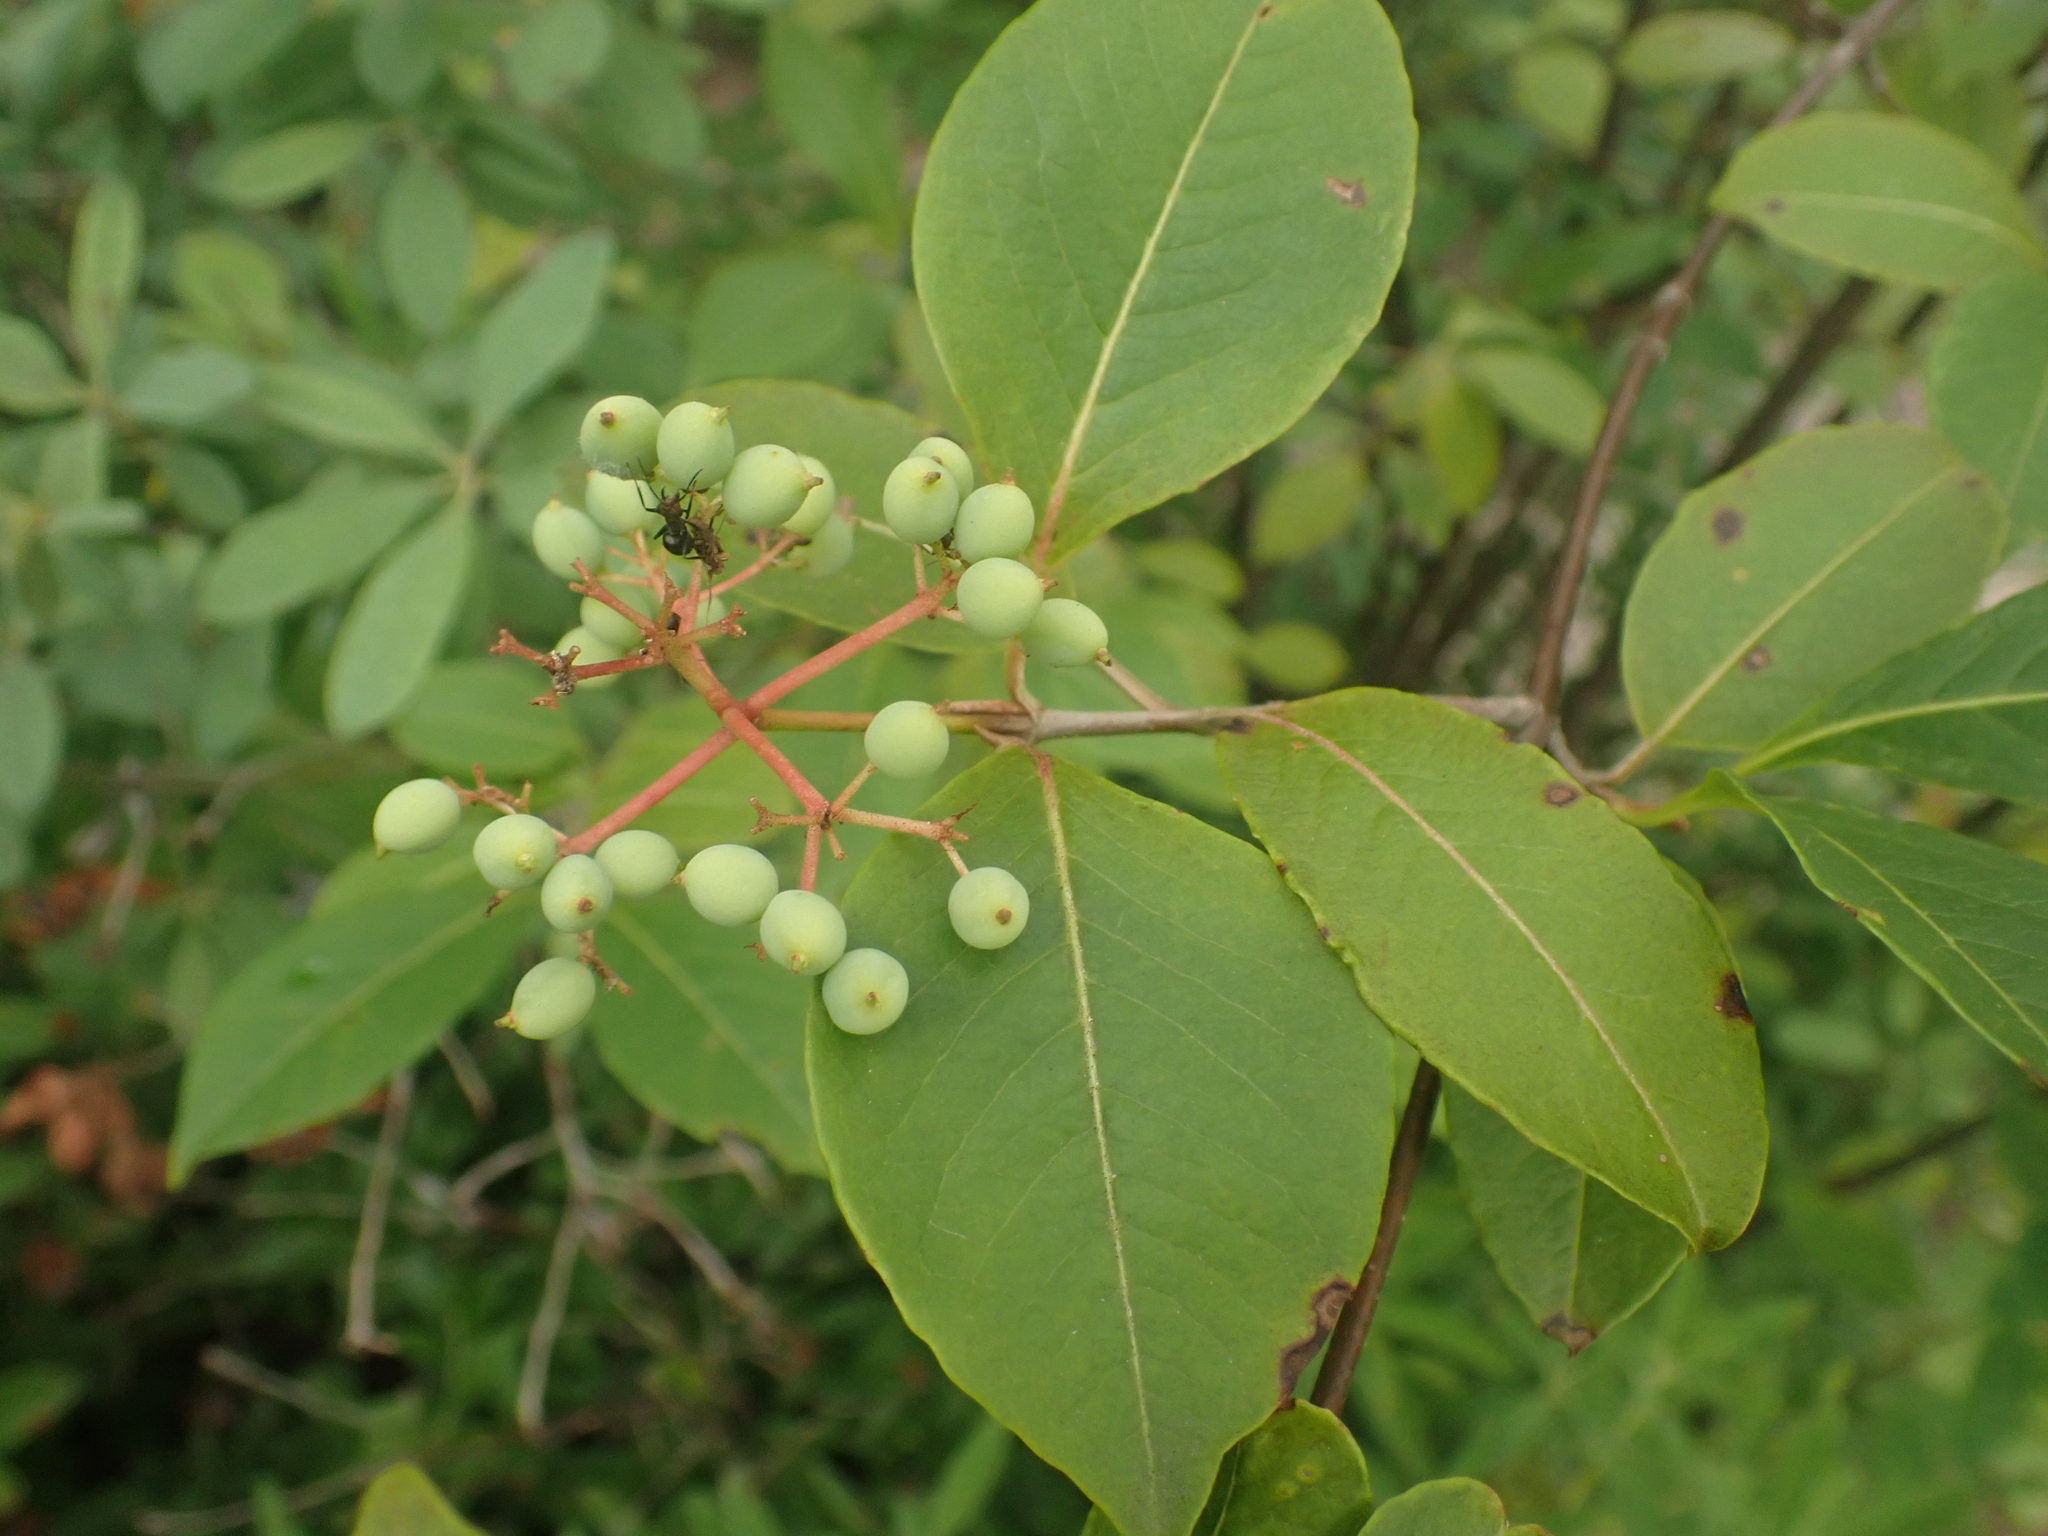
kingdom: Plantae
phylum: Tracheophyta
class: Magnoliopsida
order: Dipsacales
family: Viburnaceae
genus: Viburnum
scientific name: Viburnum cassinoides
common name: Swamp haw
